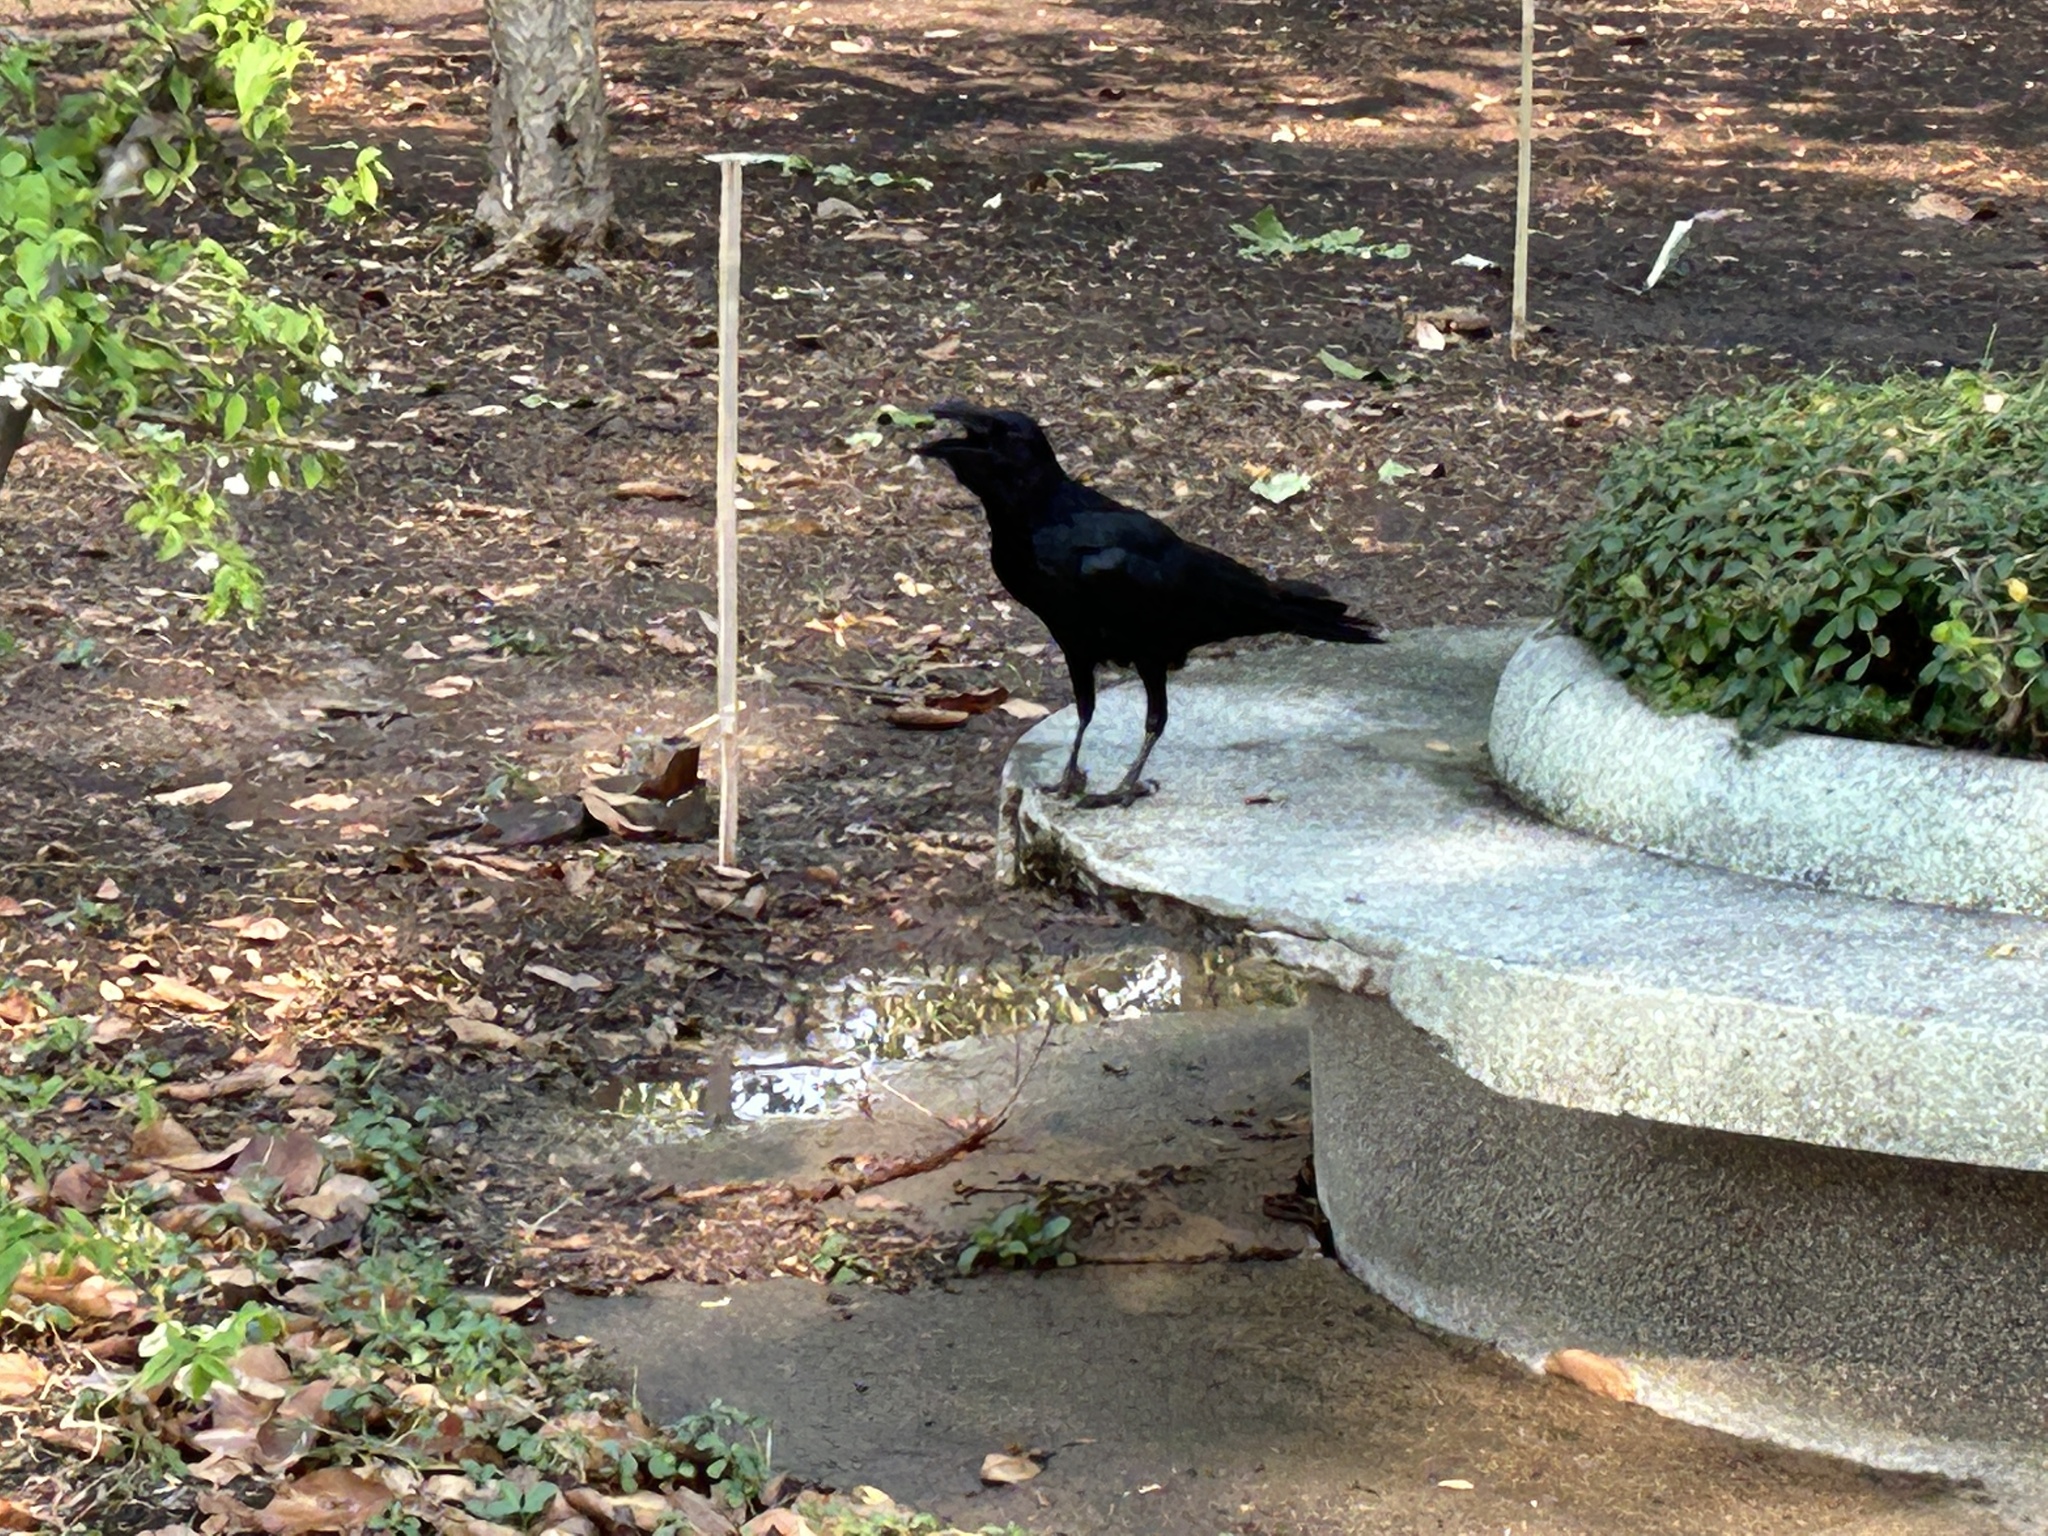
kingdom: Animalia
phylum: Chordata
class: Aves
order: Passeriformes
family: Corvidae
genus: Corvus
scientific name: Corvus macrorhynchos
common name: Large-billed crow
